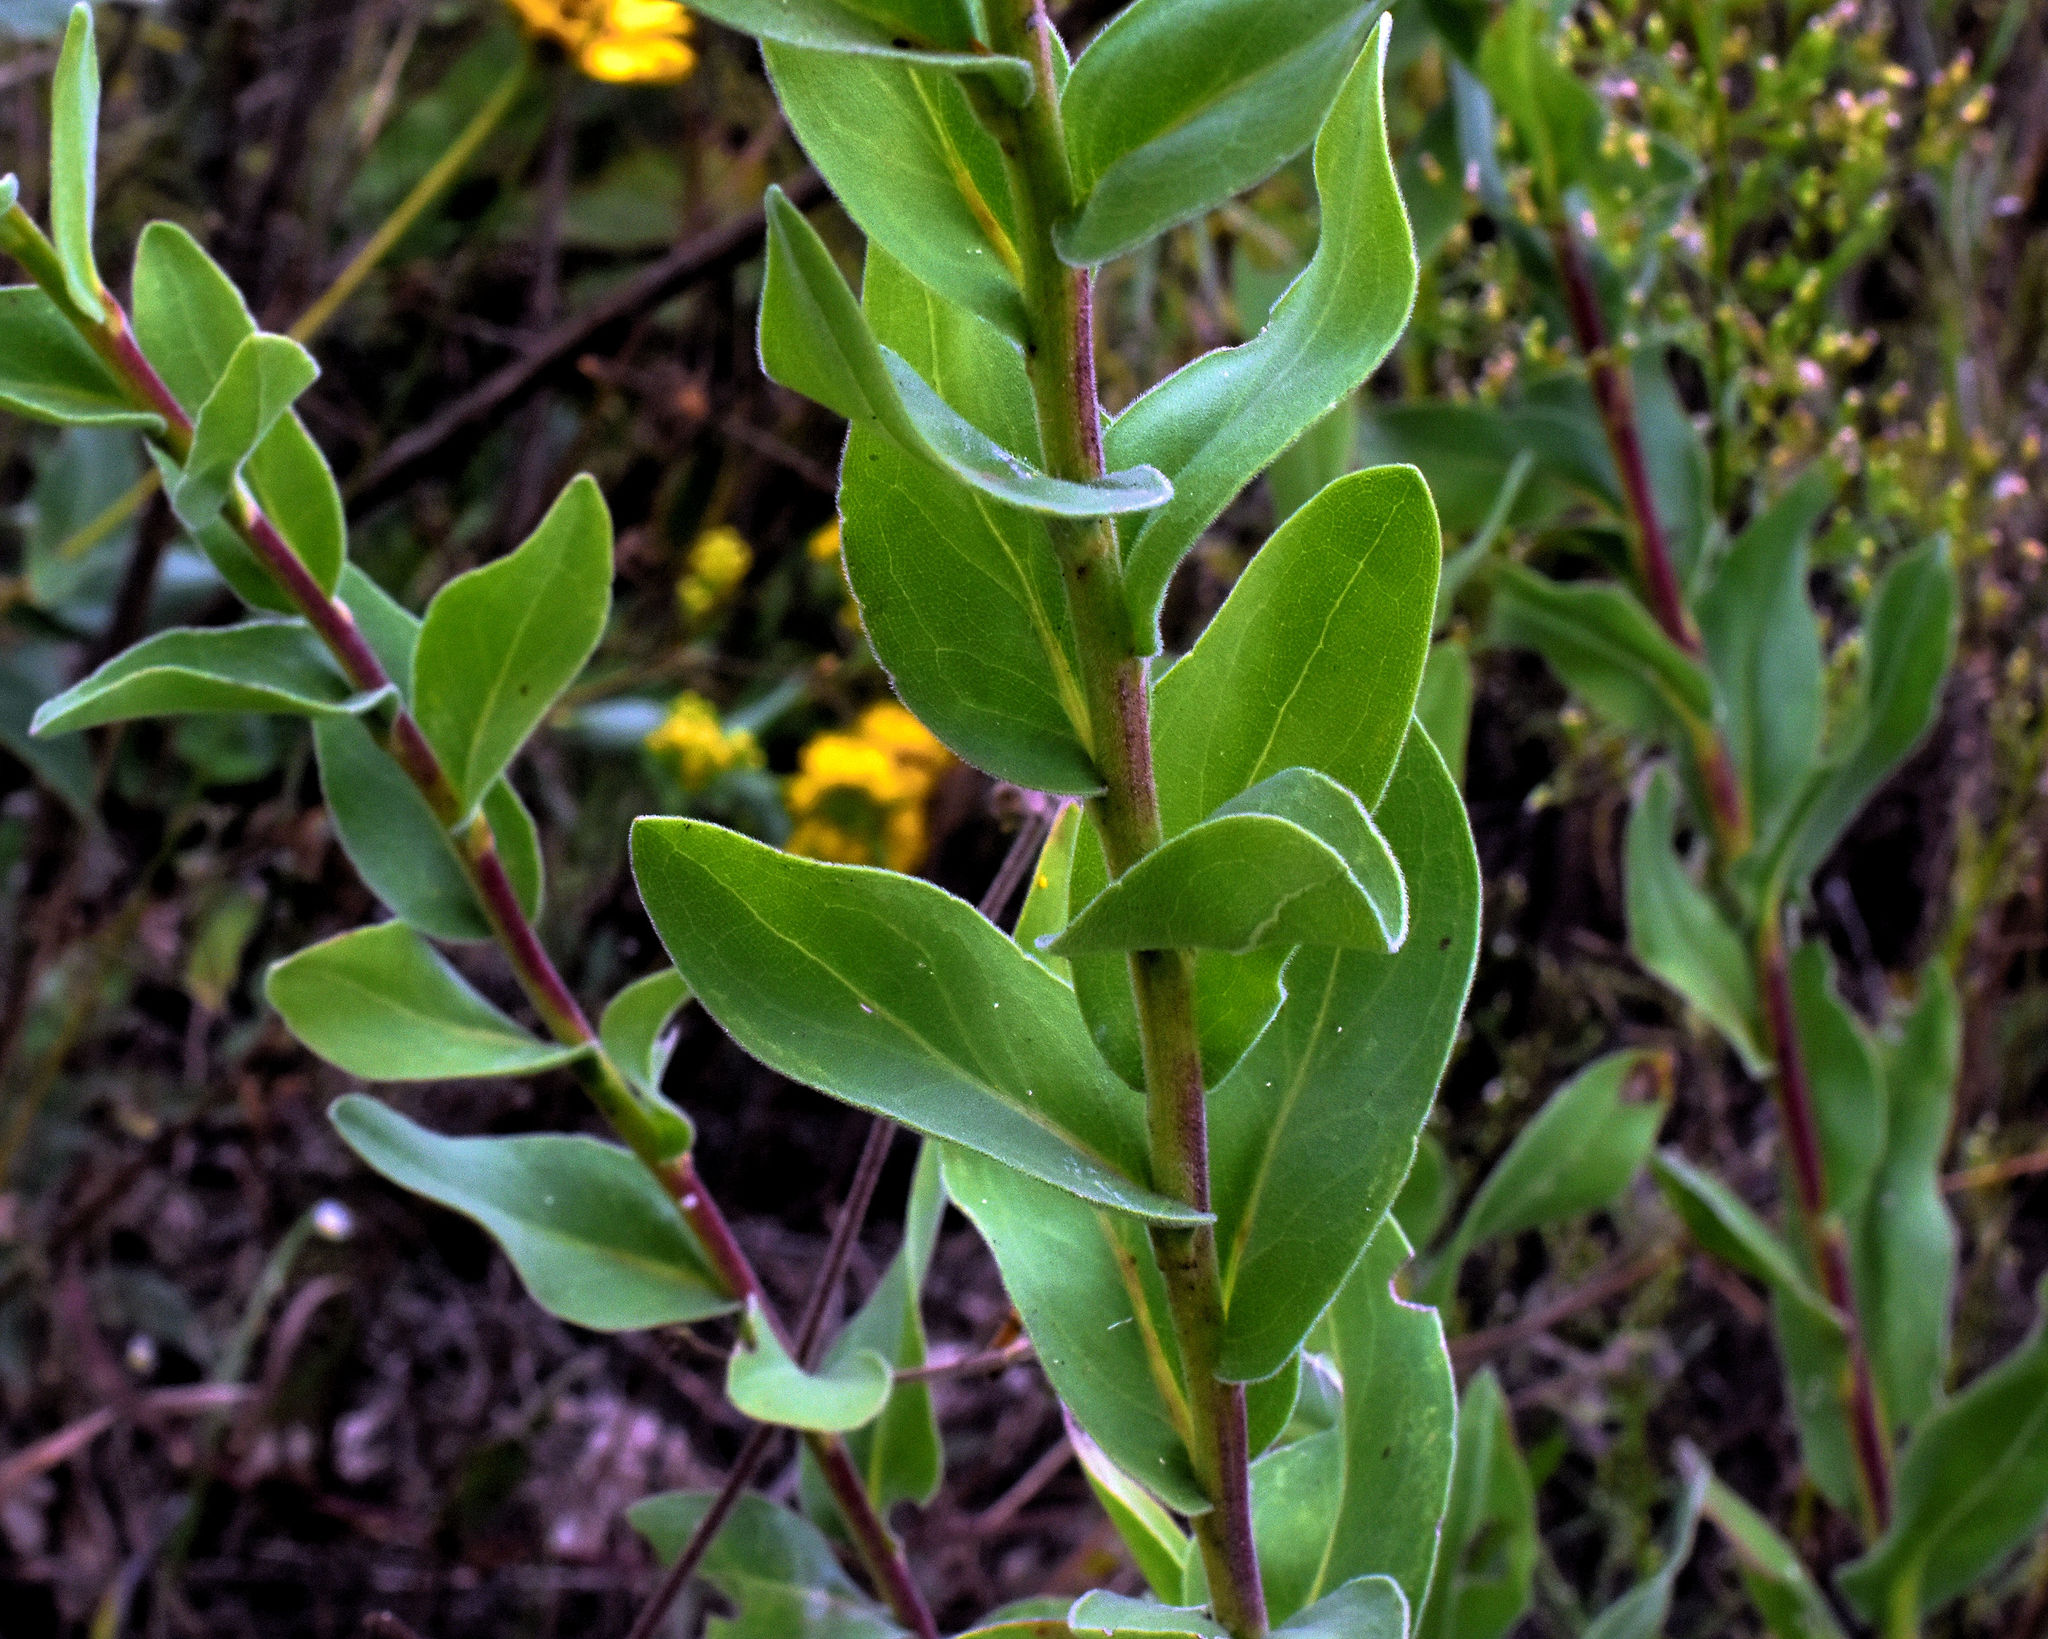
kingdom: Plantae
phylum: Tracheophyta
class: Magnoliopsida
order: Asterales
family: Asteraceae
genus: Solidago
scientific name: Solidago rigida
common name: Rigid goldenrod
